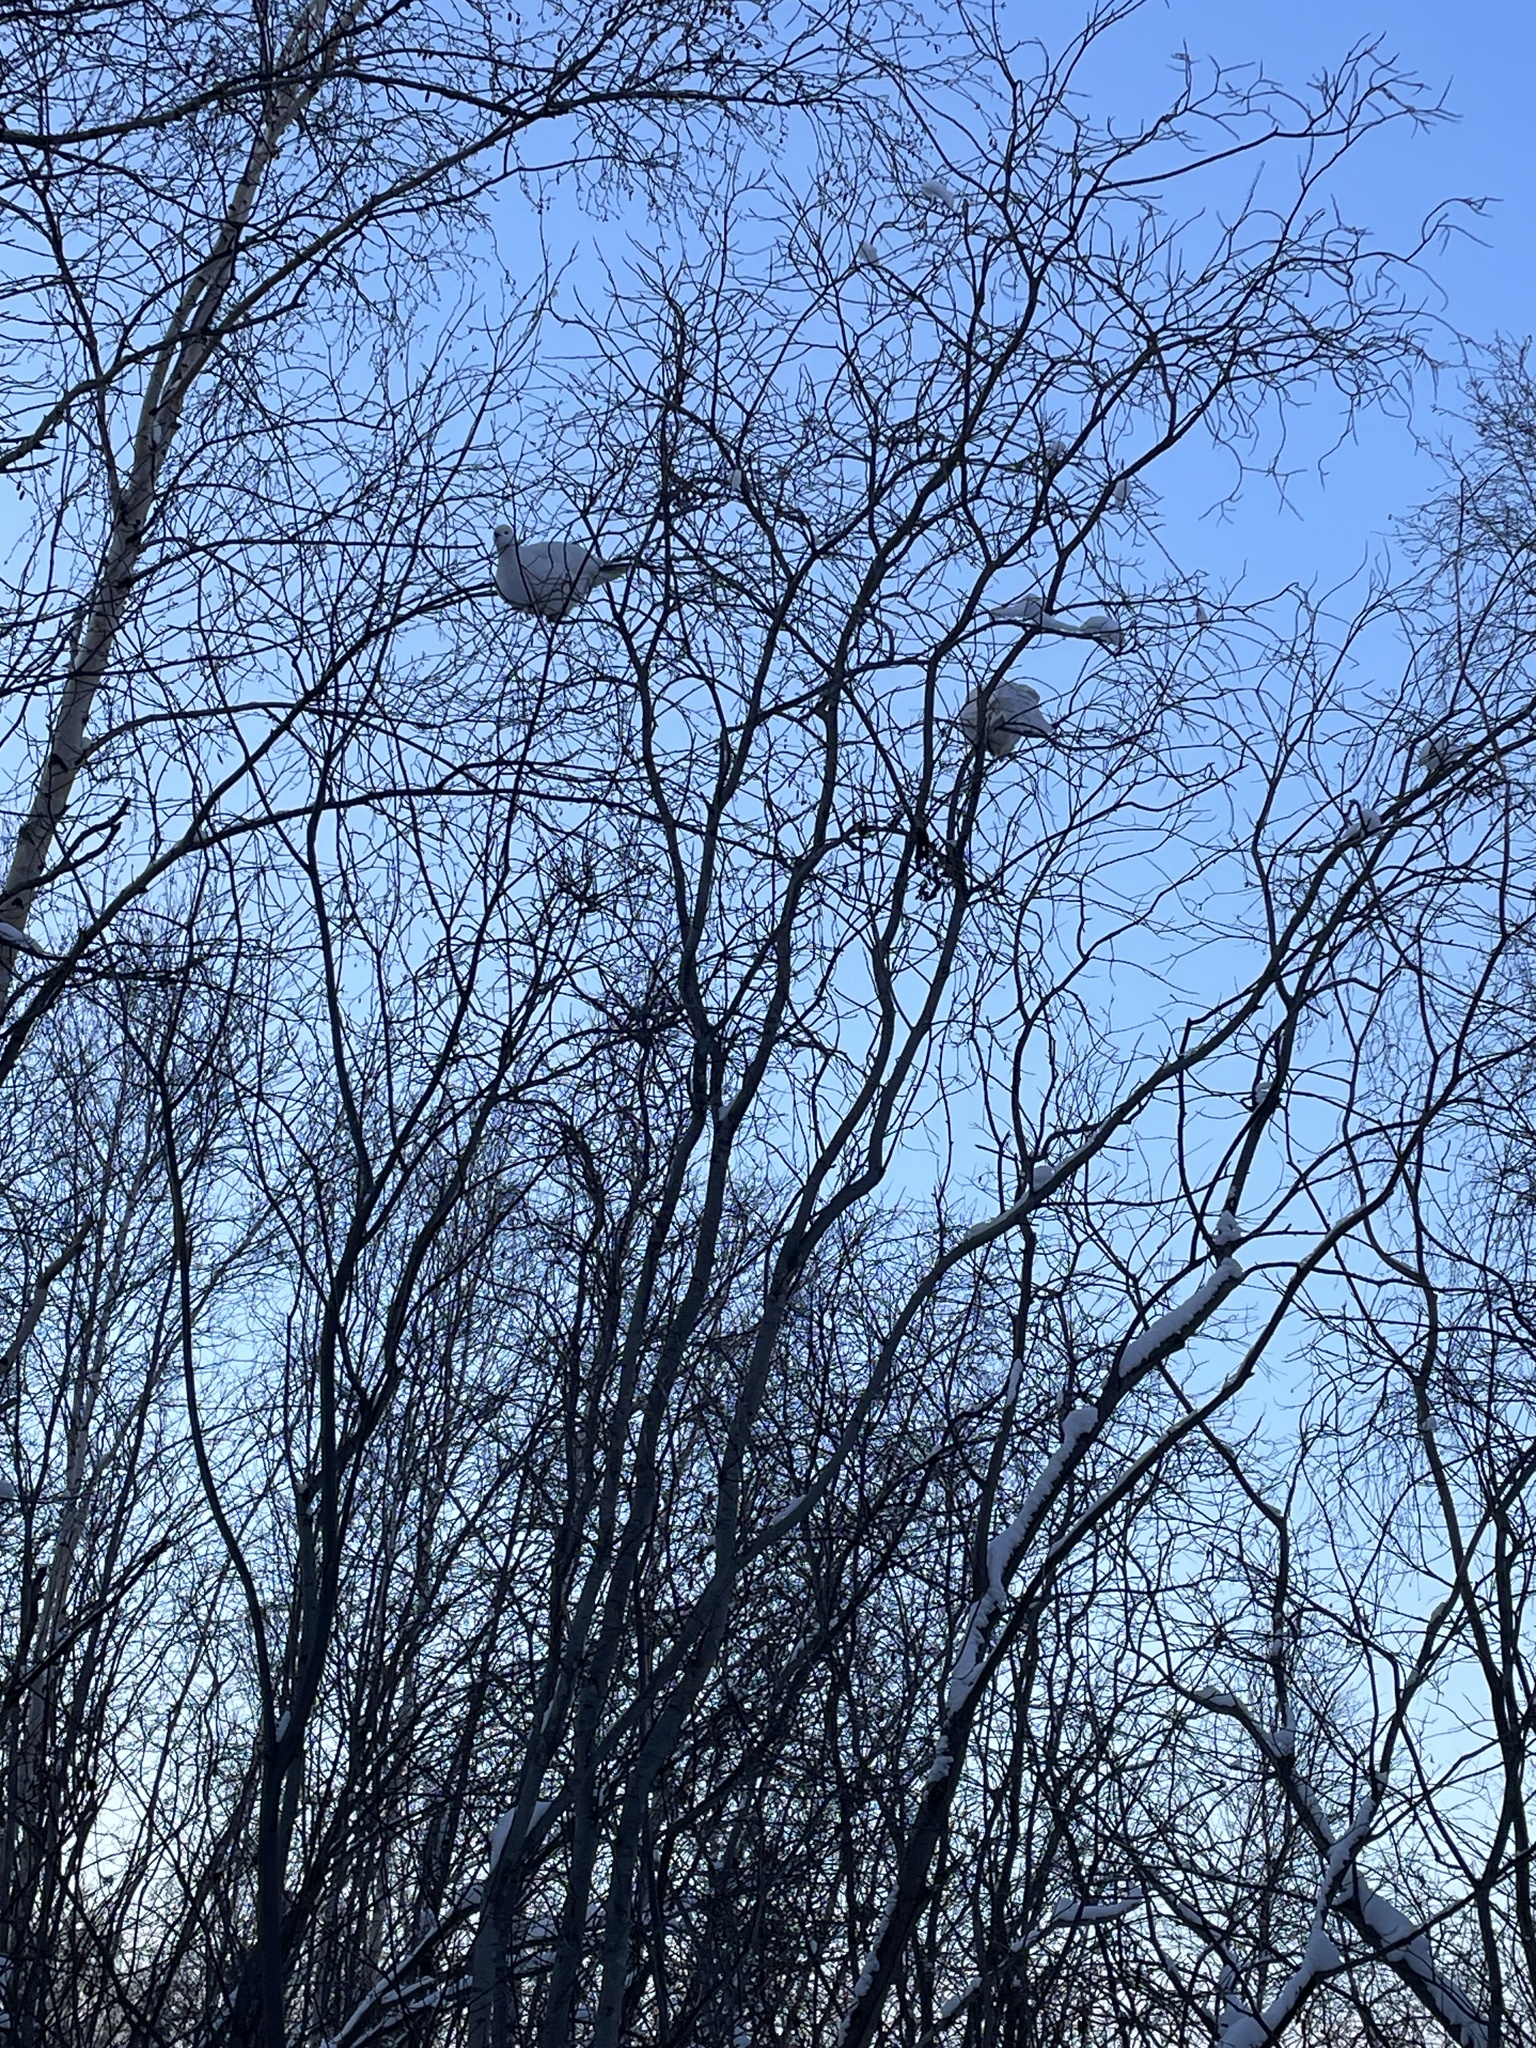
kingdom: Animalia
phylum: Chordata
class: Aves
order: Galliformes
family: Phasianidae
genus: Lagopus
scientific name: Lagopus lagopus
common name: Willow ptarmigan
